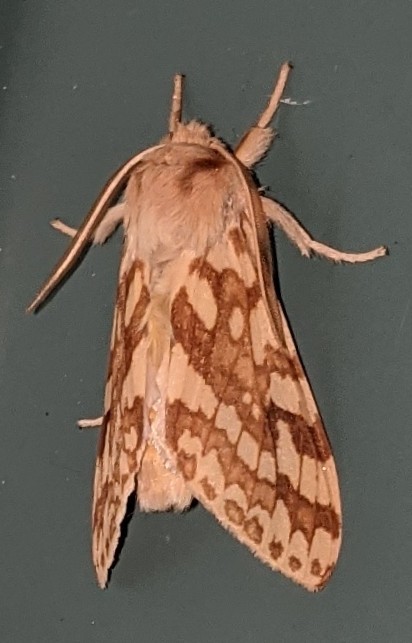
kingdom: Animalia
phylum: Arthropoda
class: Insecta
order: Lepidoptera
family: Erebidae
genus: Lophocampa
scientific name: Lophocampa maculata
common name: Spotted tussock moth
